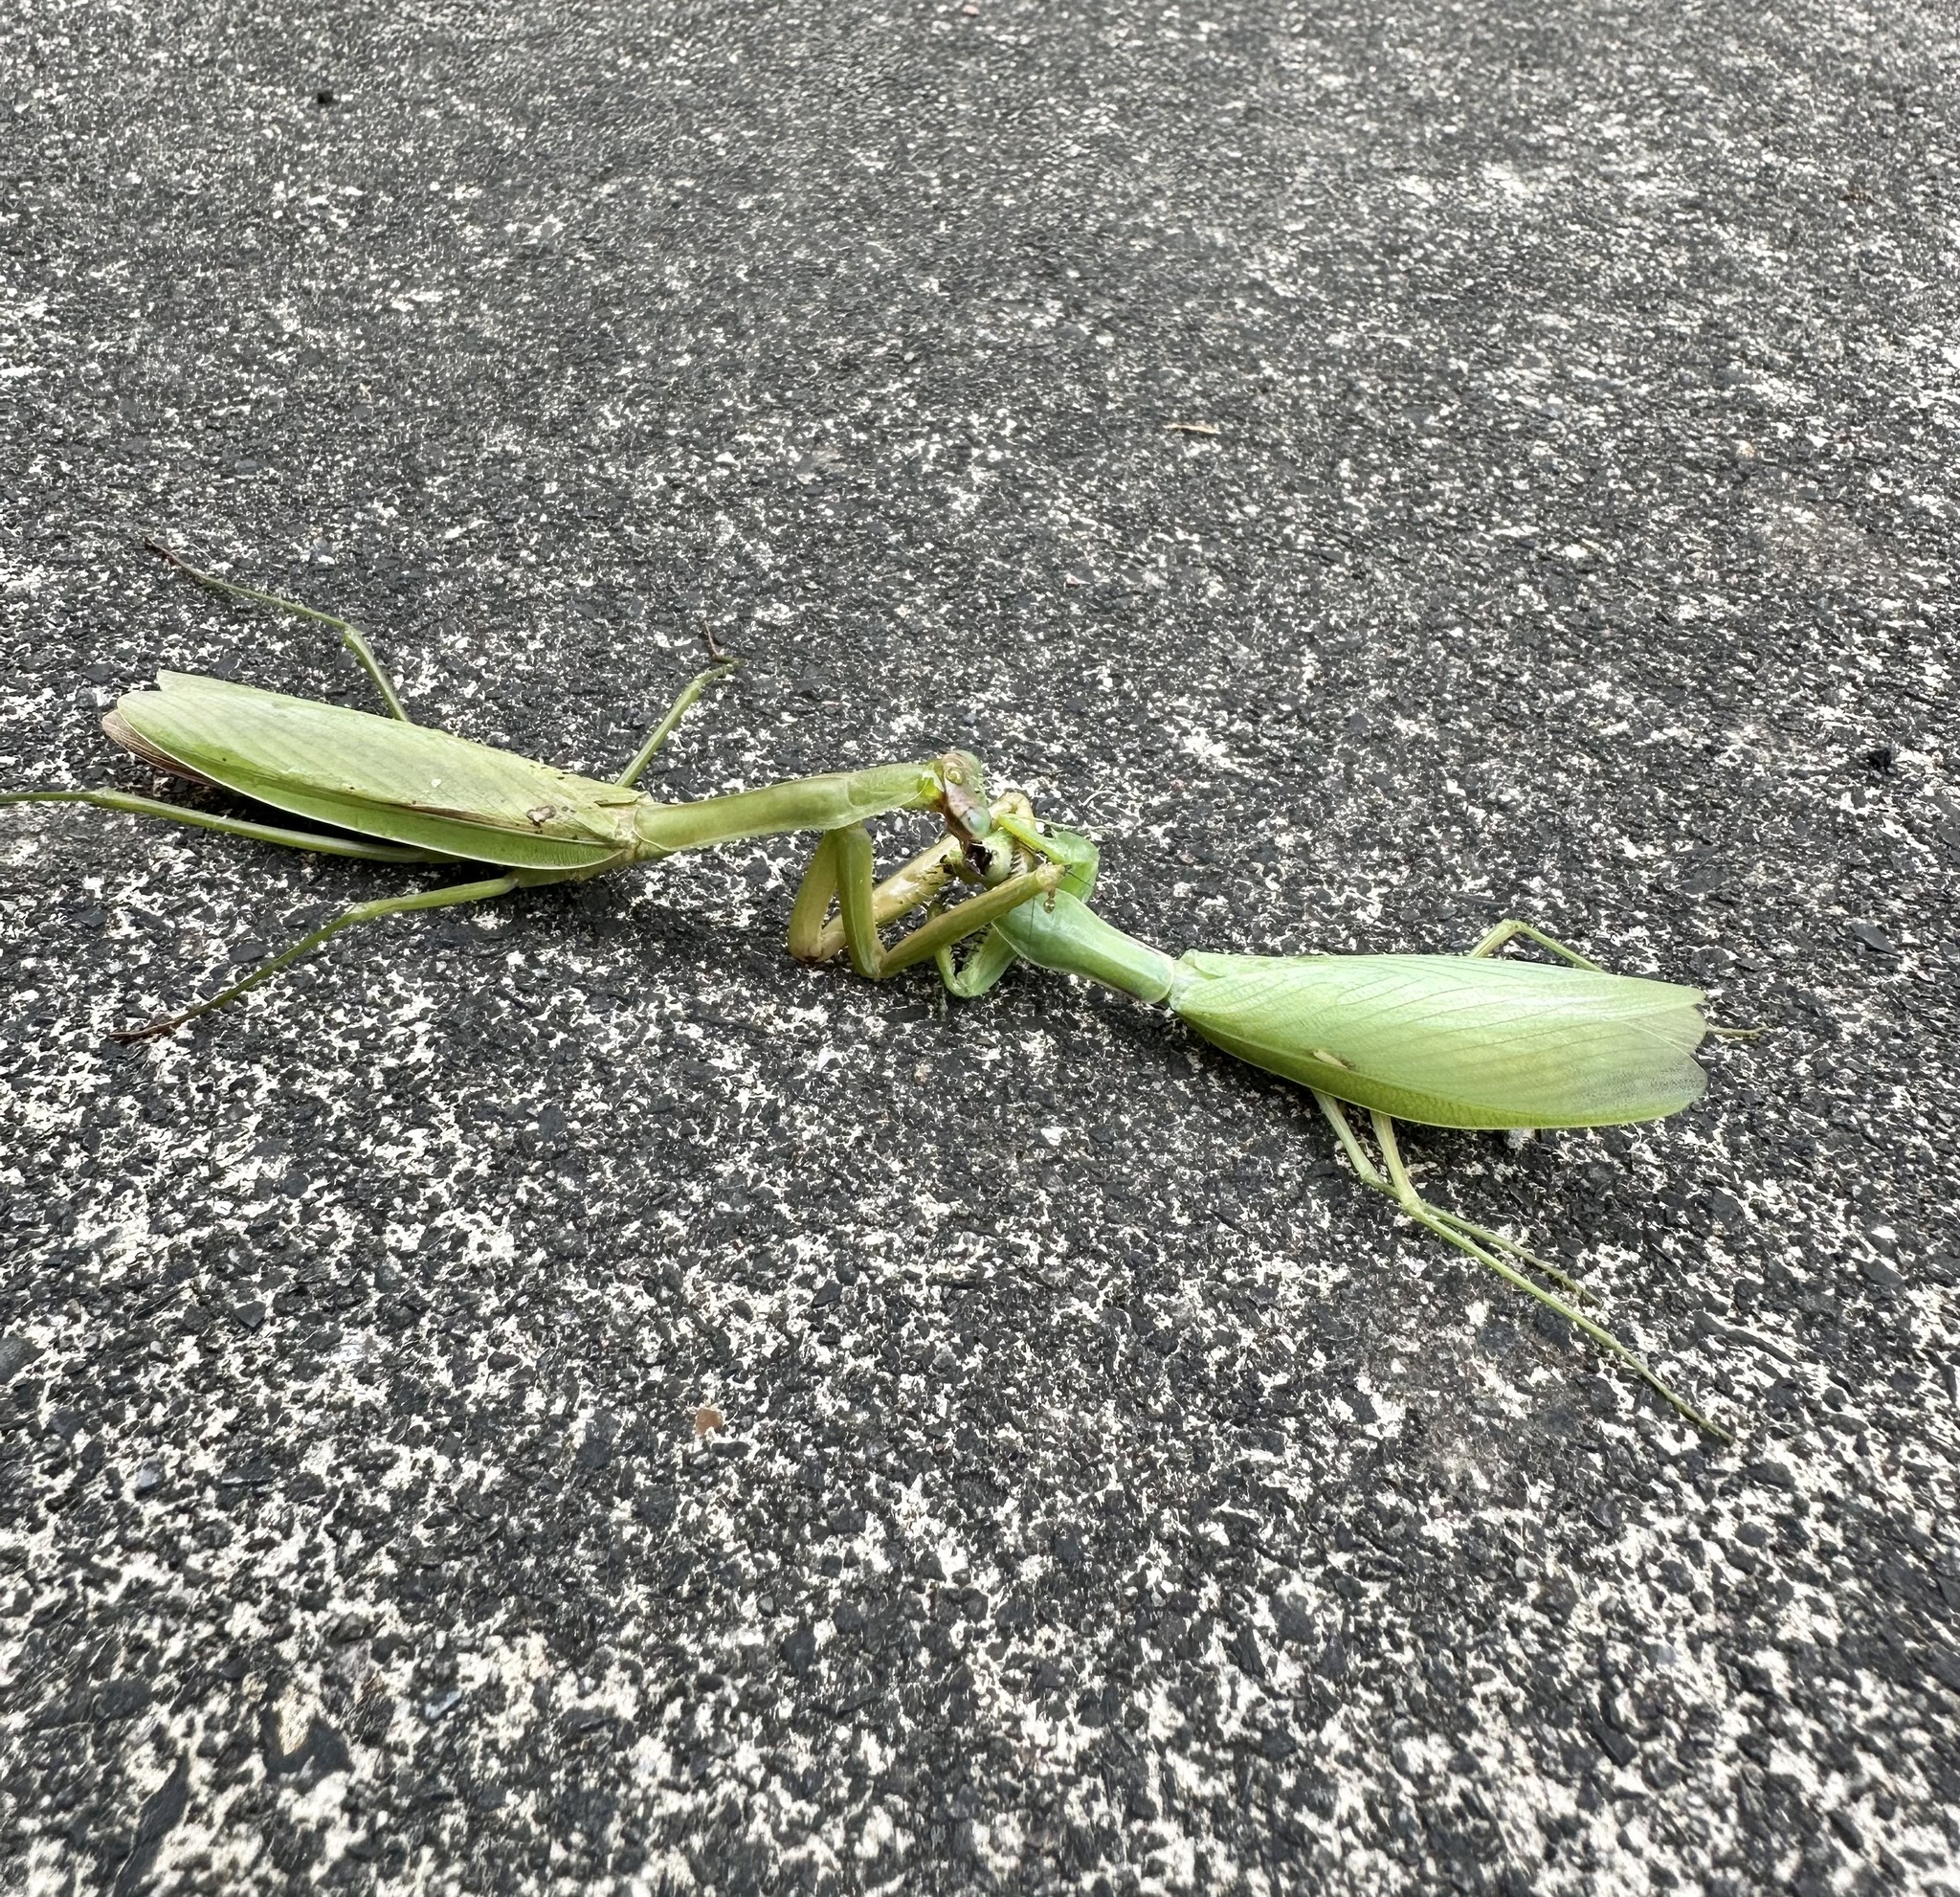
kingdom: Animalia
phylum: Arthropoda
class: Insecta
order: Mantodea
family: Mantidae
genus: Hierodula
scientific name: Hierodula patellifera
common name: Asian mantis
